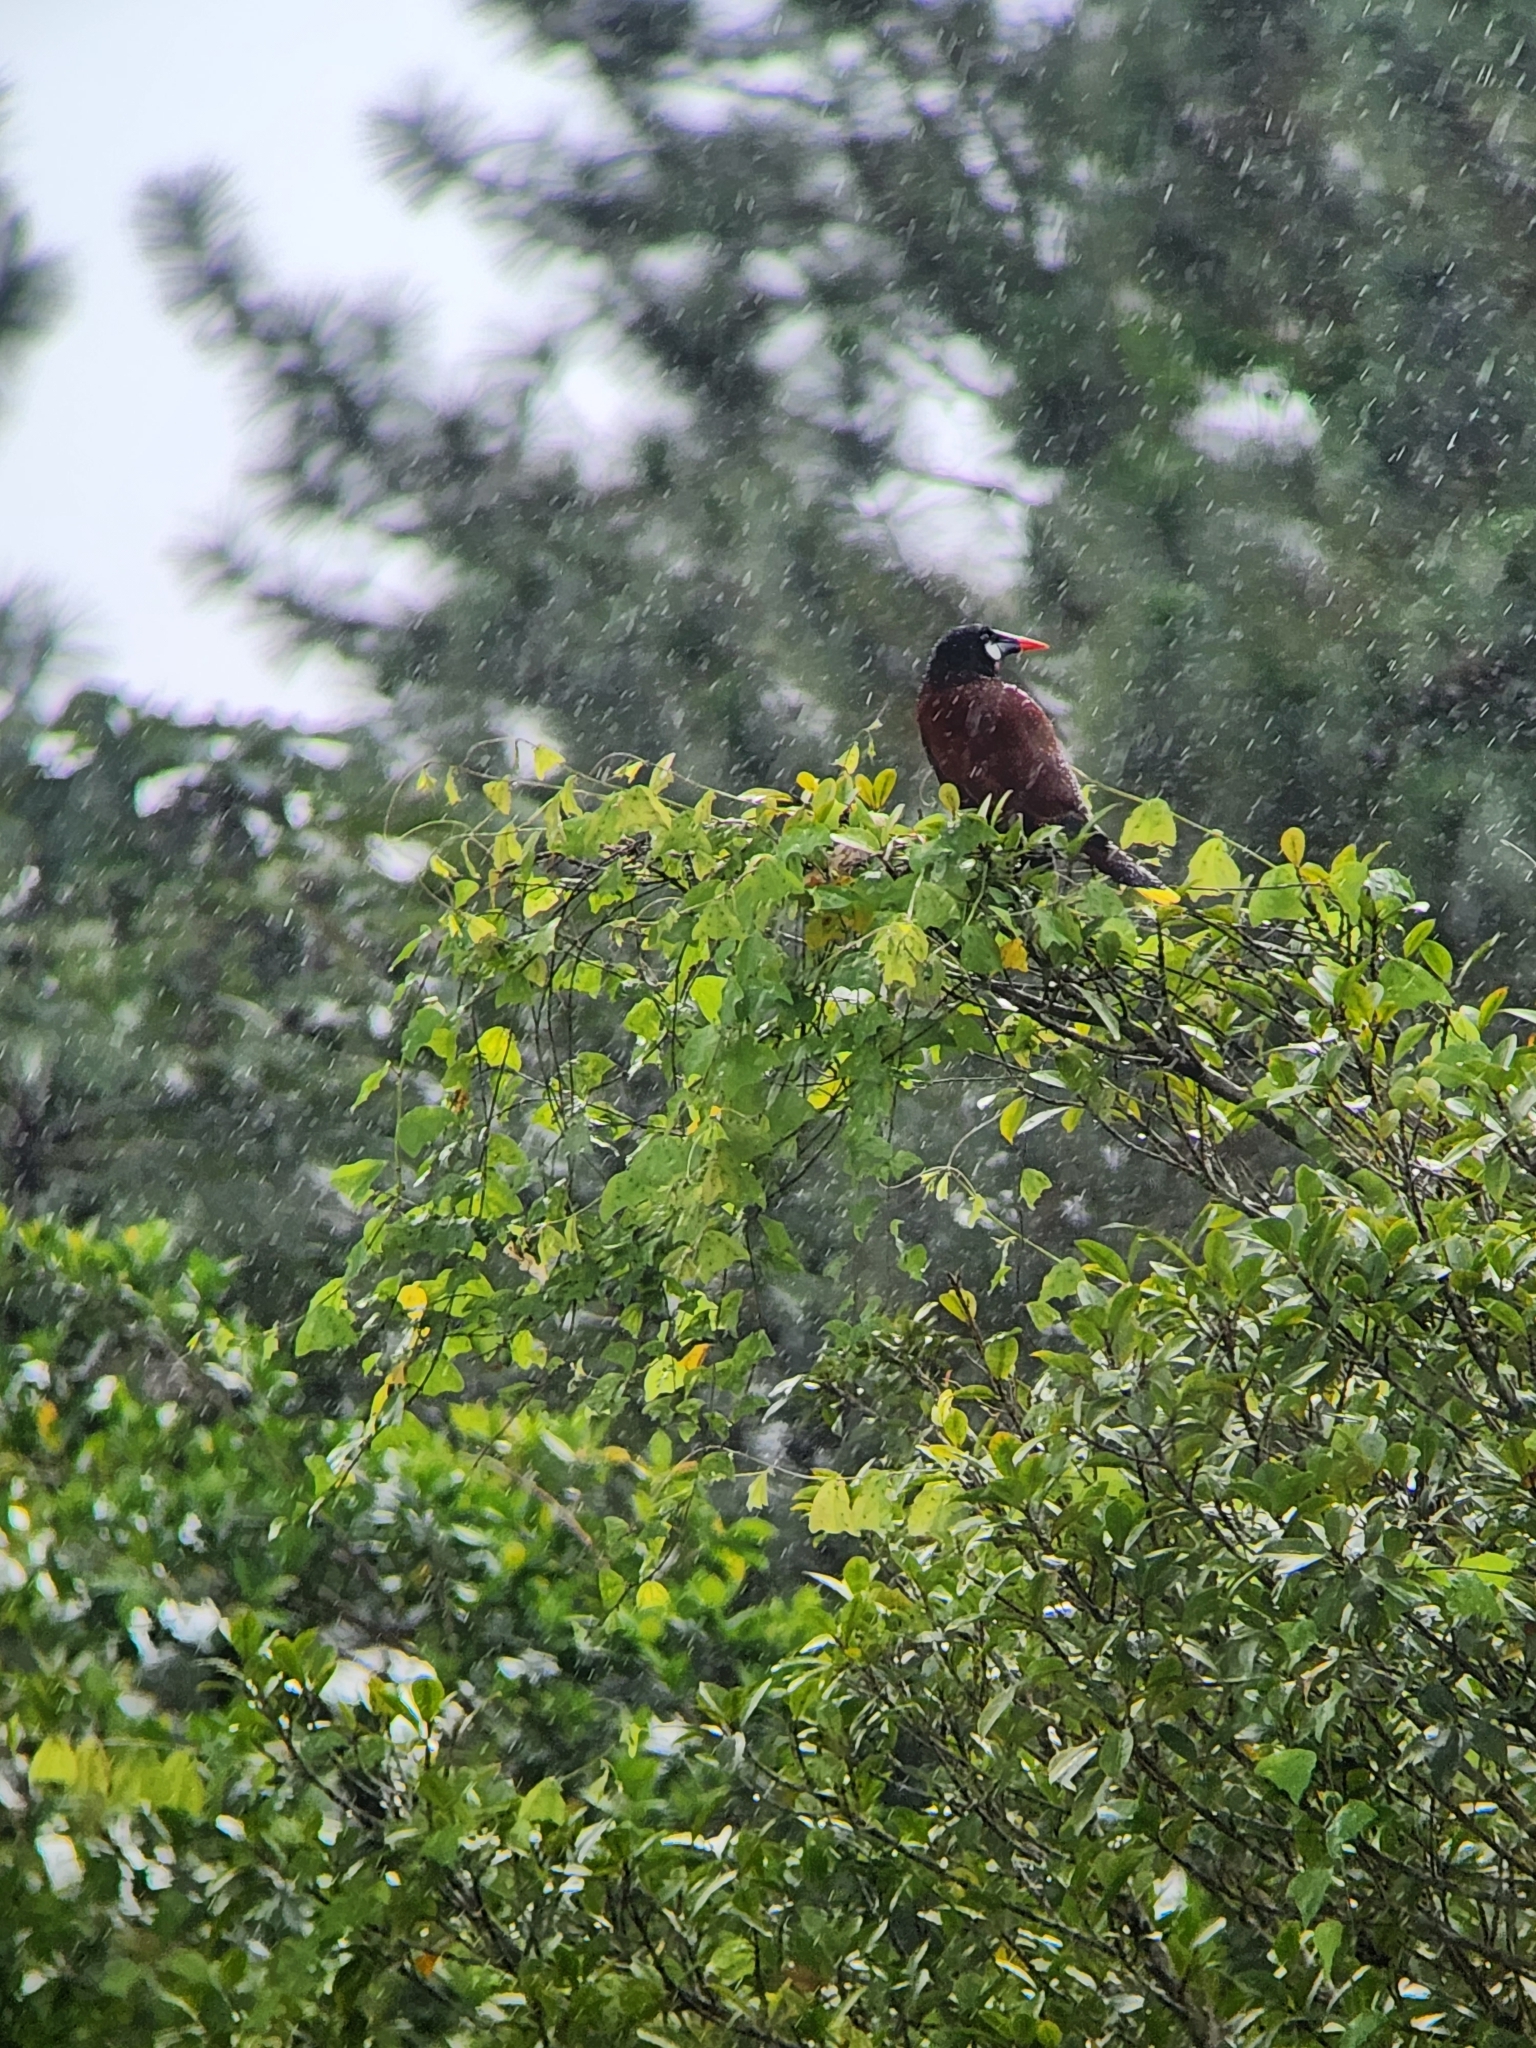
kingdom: Animalia
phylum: Chordata
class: Aves
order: Passeriformes
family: Icteridae
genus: Psarocolius
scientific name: Psarocolius montezuma
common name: Montezuma oropendola
